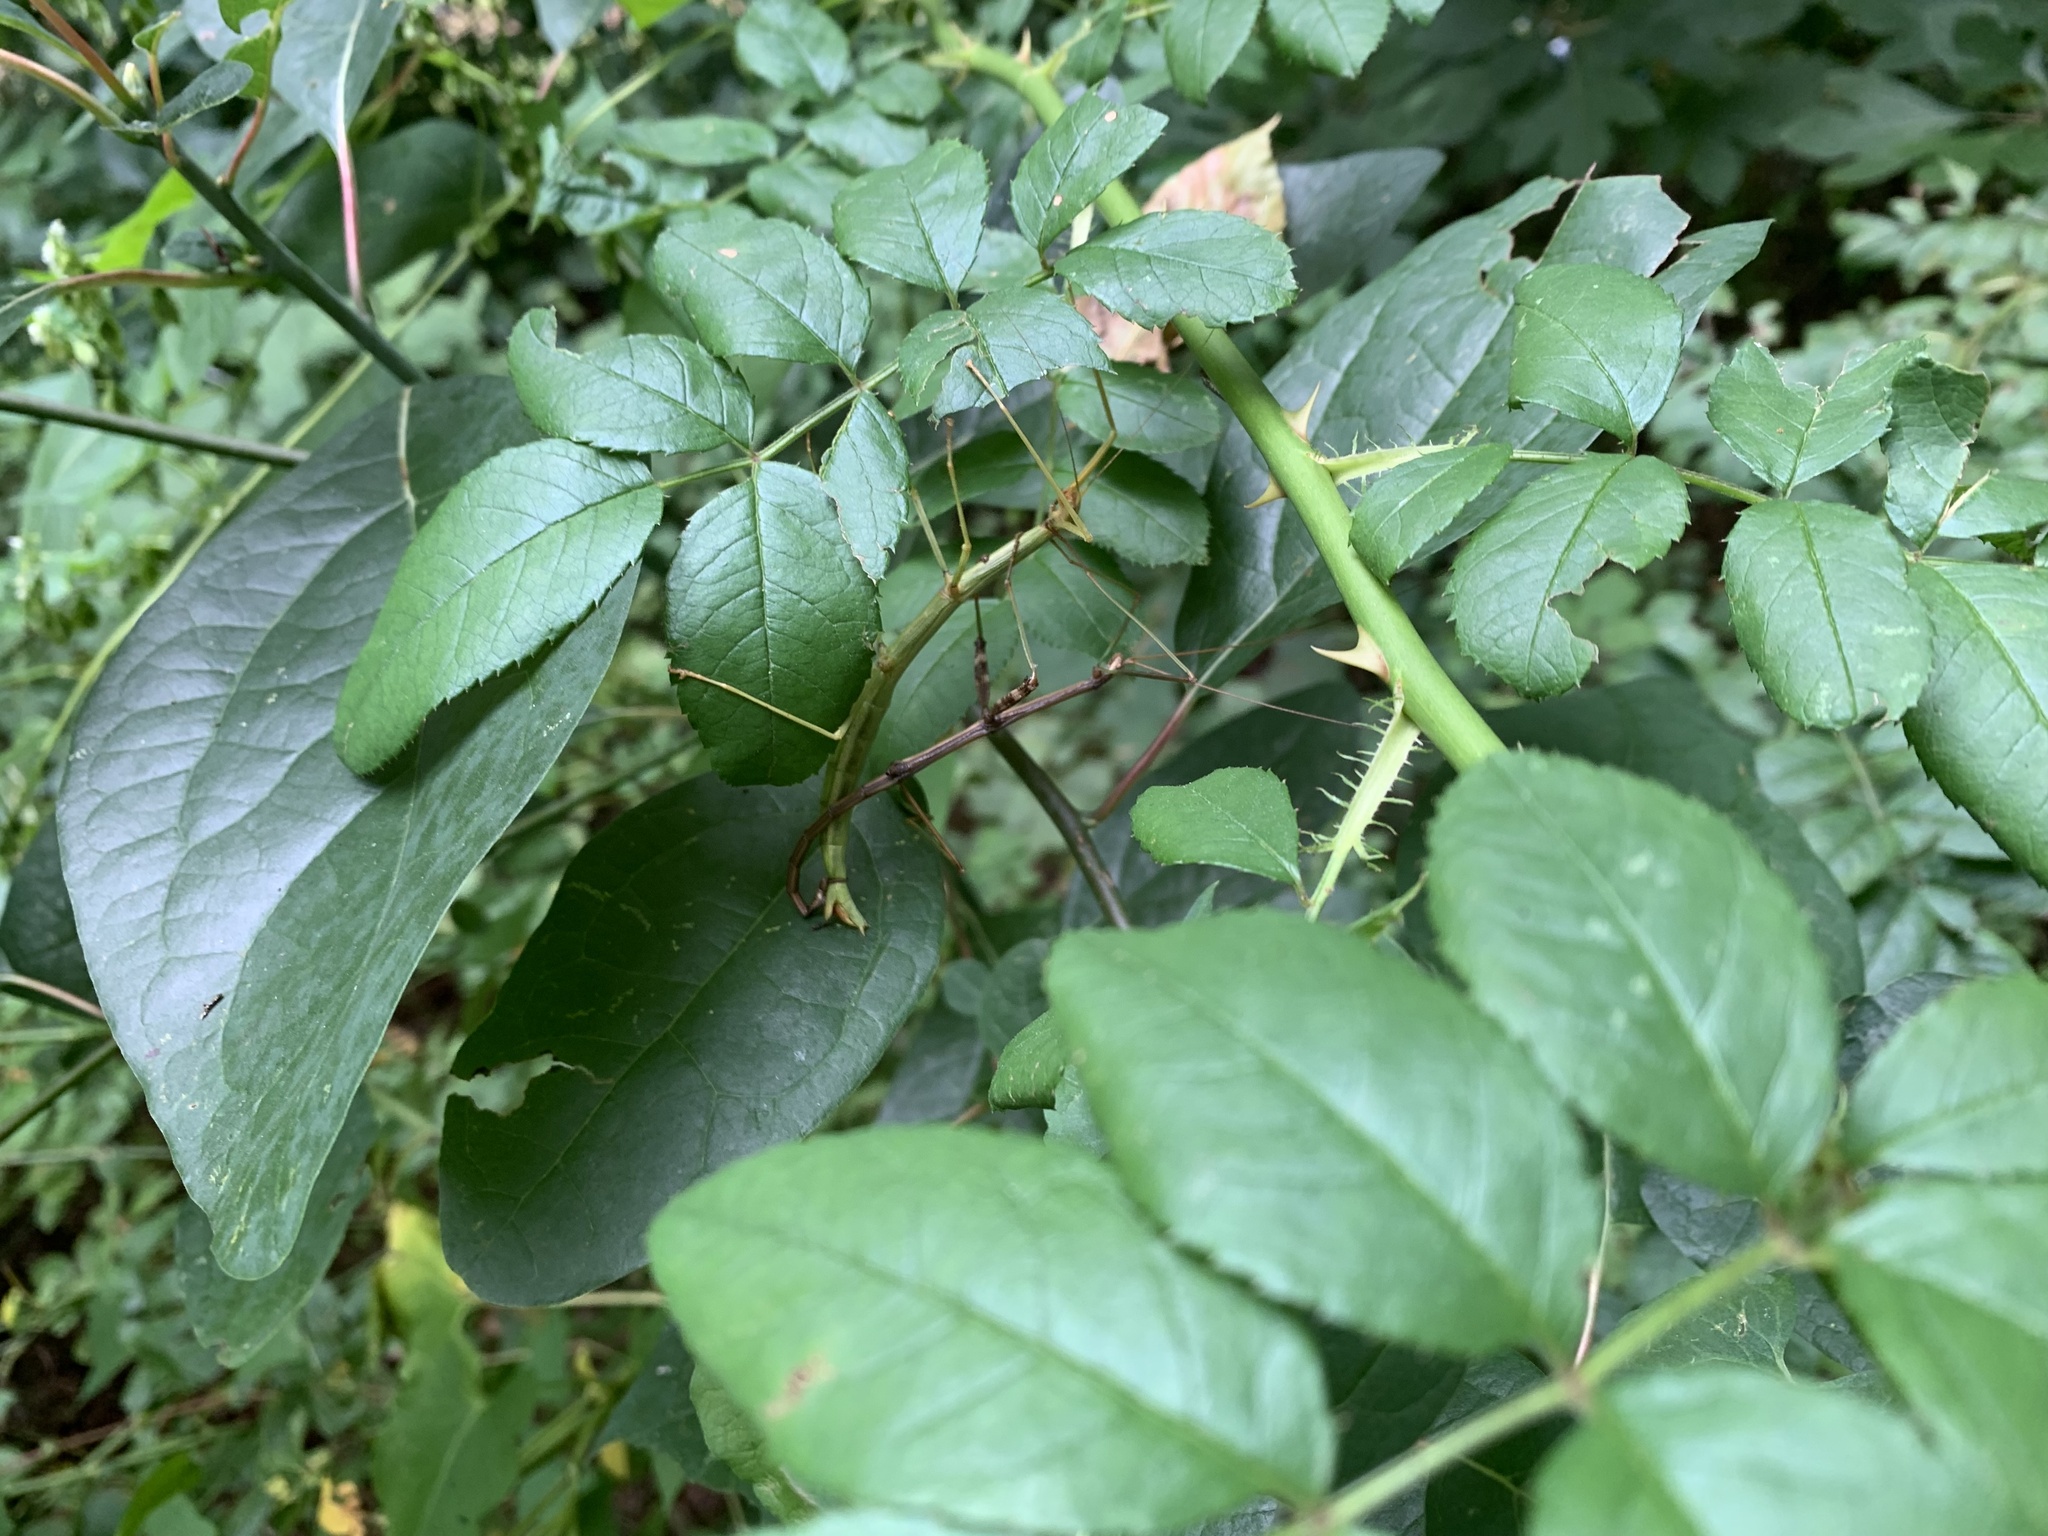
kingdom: Animalia
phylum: Arthropoda
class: Insecta
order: Phasmida
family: Diapheromeridae
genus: Diapheromera
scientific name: Diapheromera femorata
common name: Common american walkingstick
